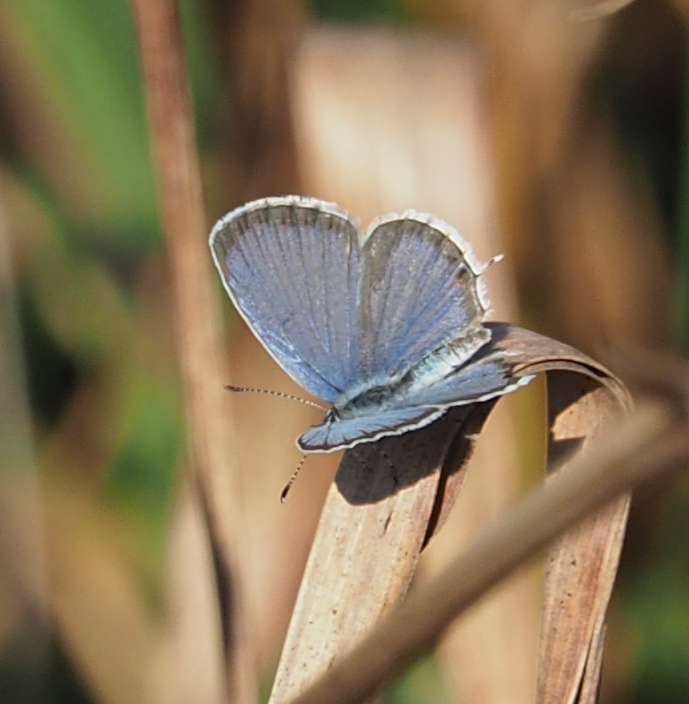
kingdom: Animalia
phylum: Arthropoda
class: Insecta
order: Lepidoptera
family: Lycaenidae
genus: Elkalyce
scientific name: Elkalyce comyntas
